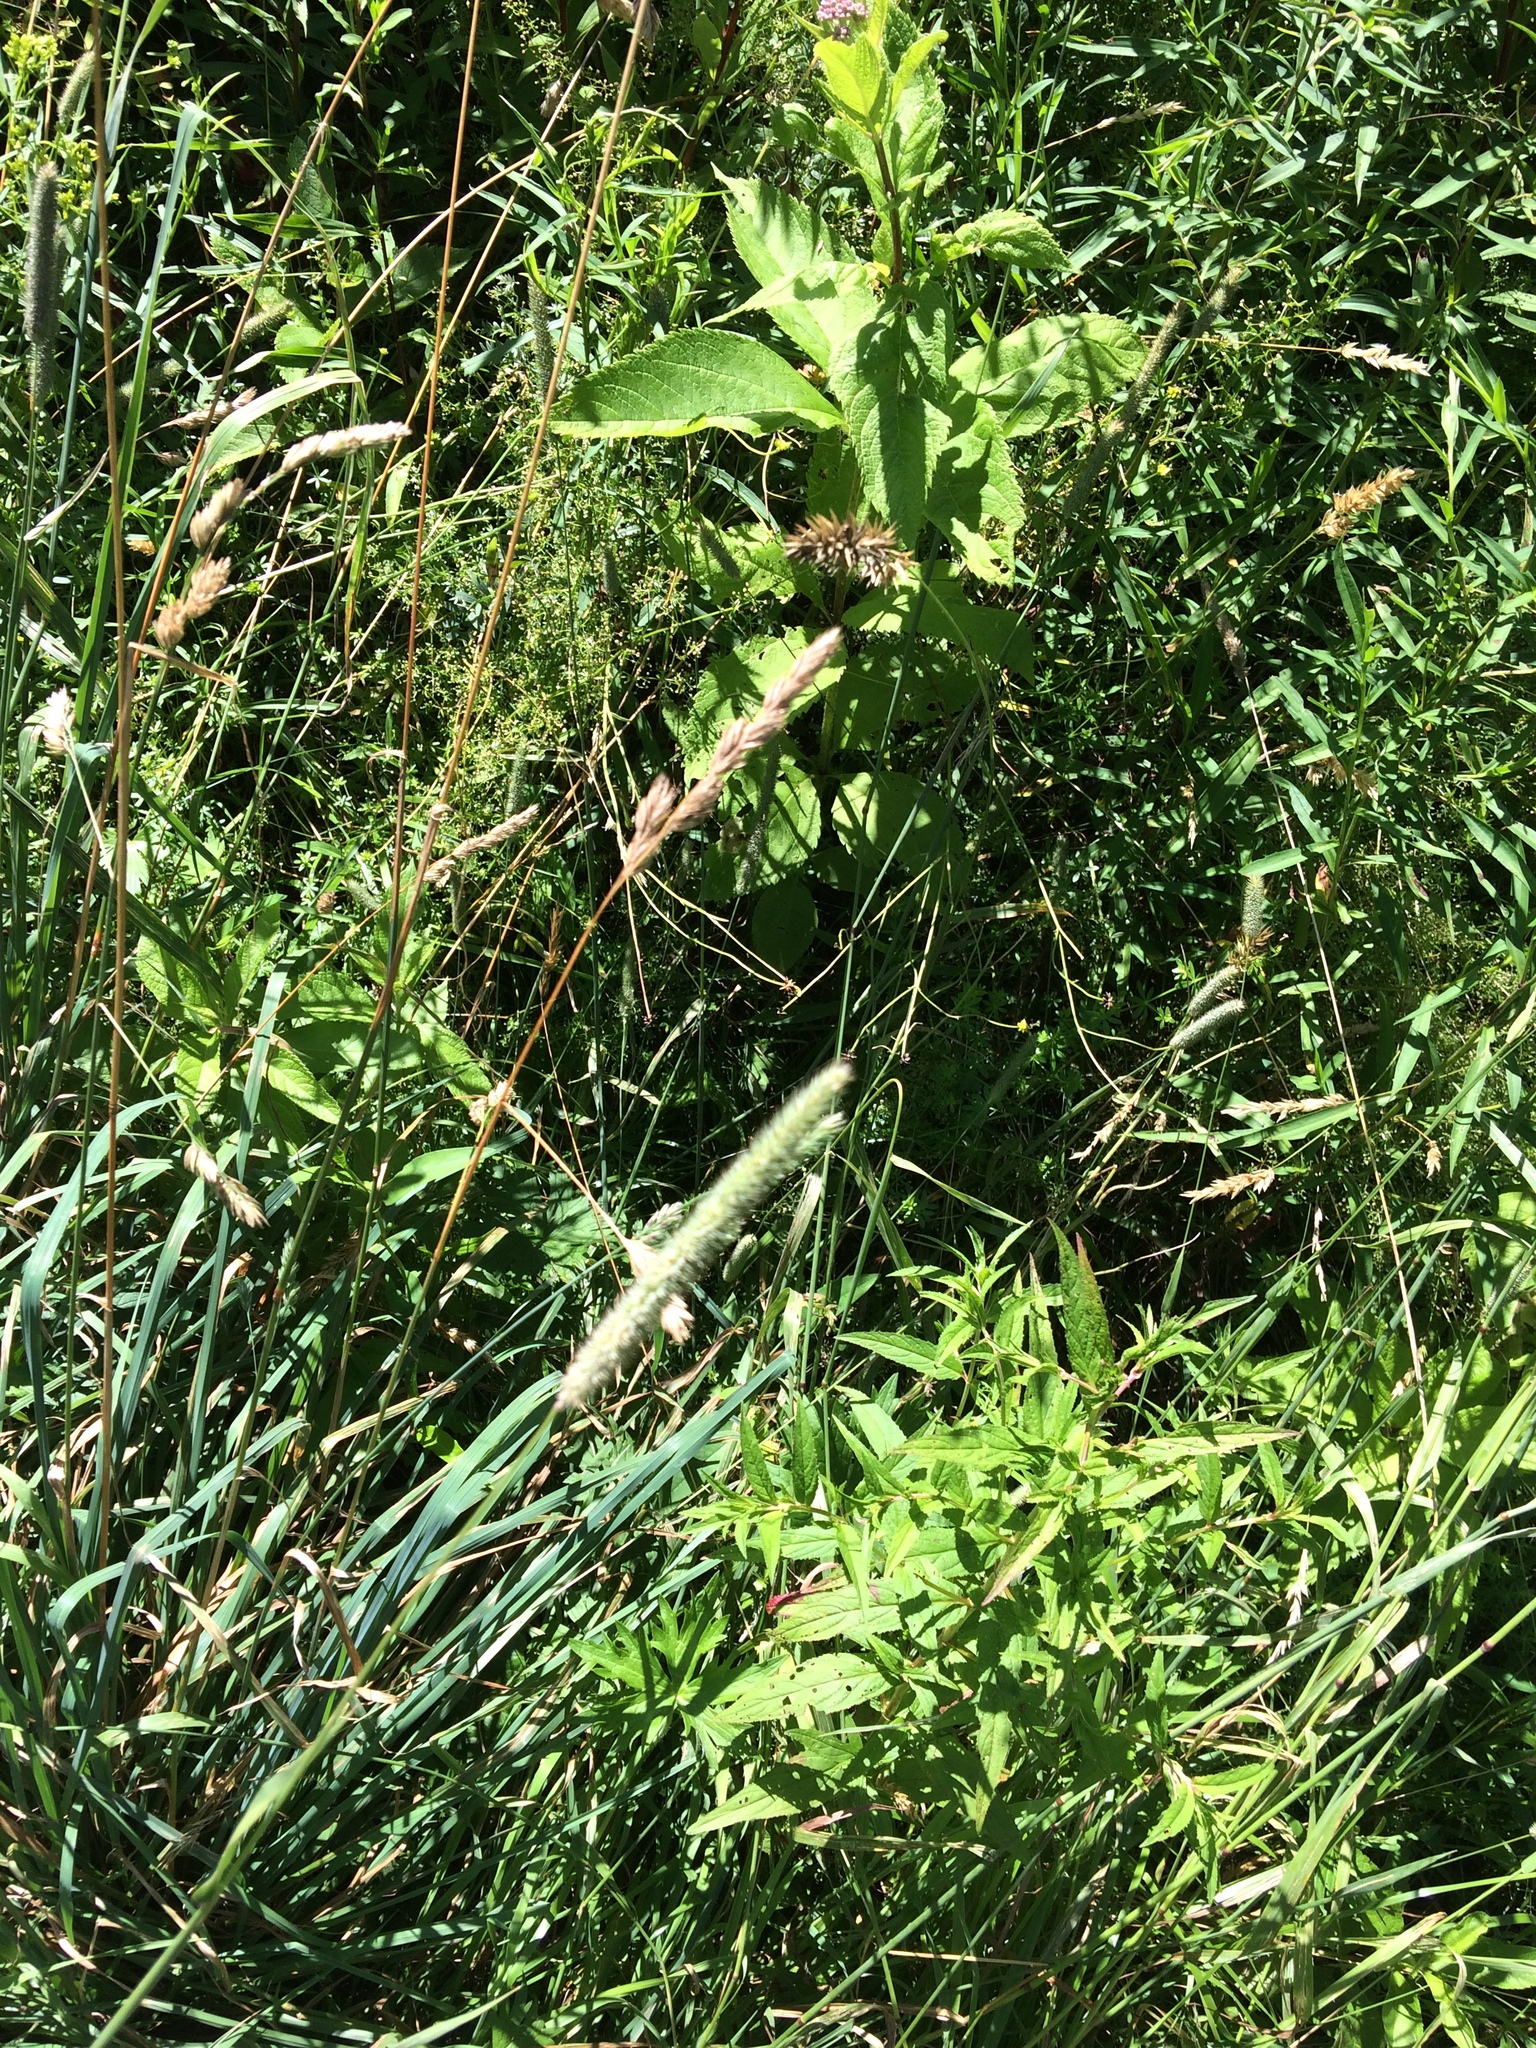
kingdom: Plantae
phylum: Tracheophyta
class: Liliopsida
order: Poales
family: Poaceae
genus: Phleum
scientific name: Phleum pratense
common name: Timothy grass
